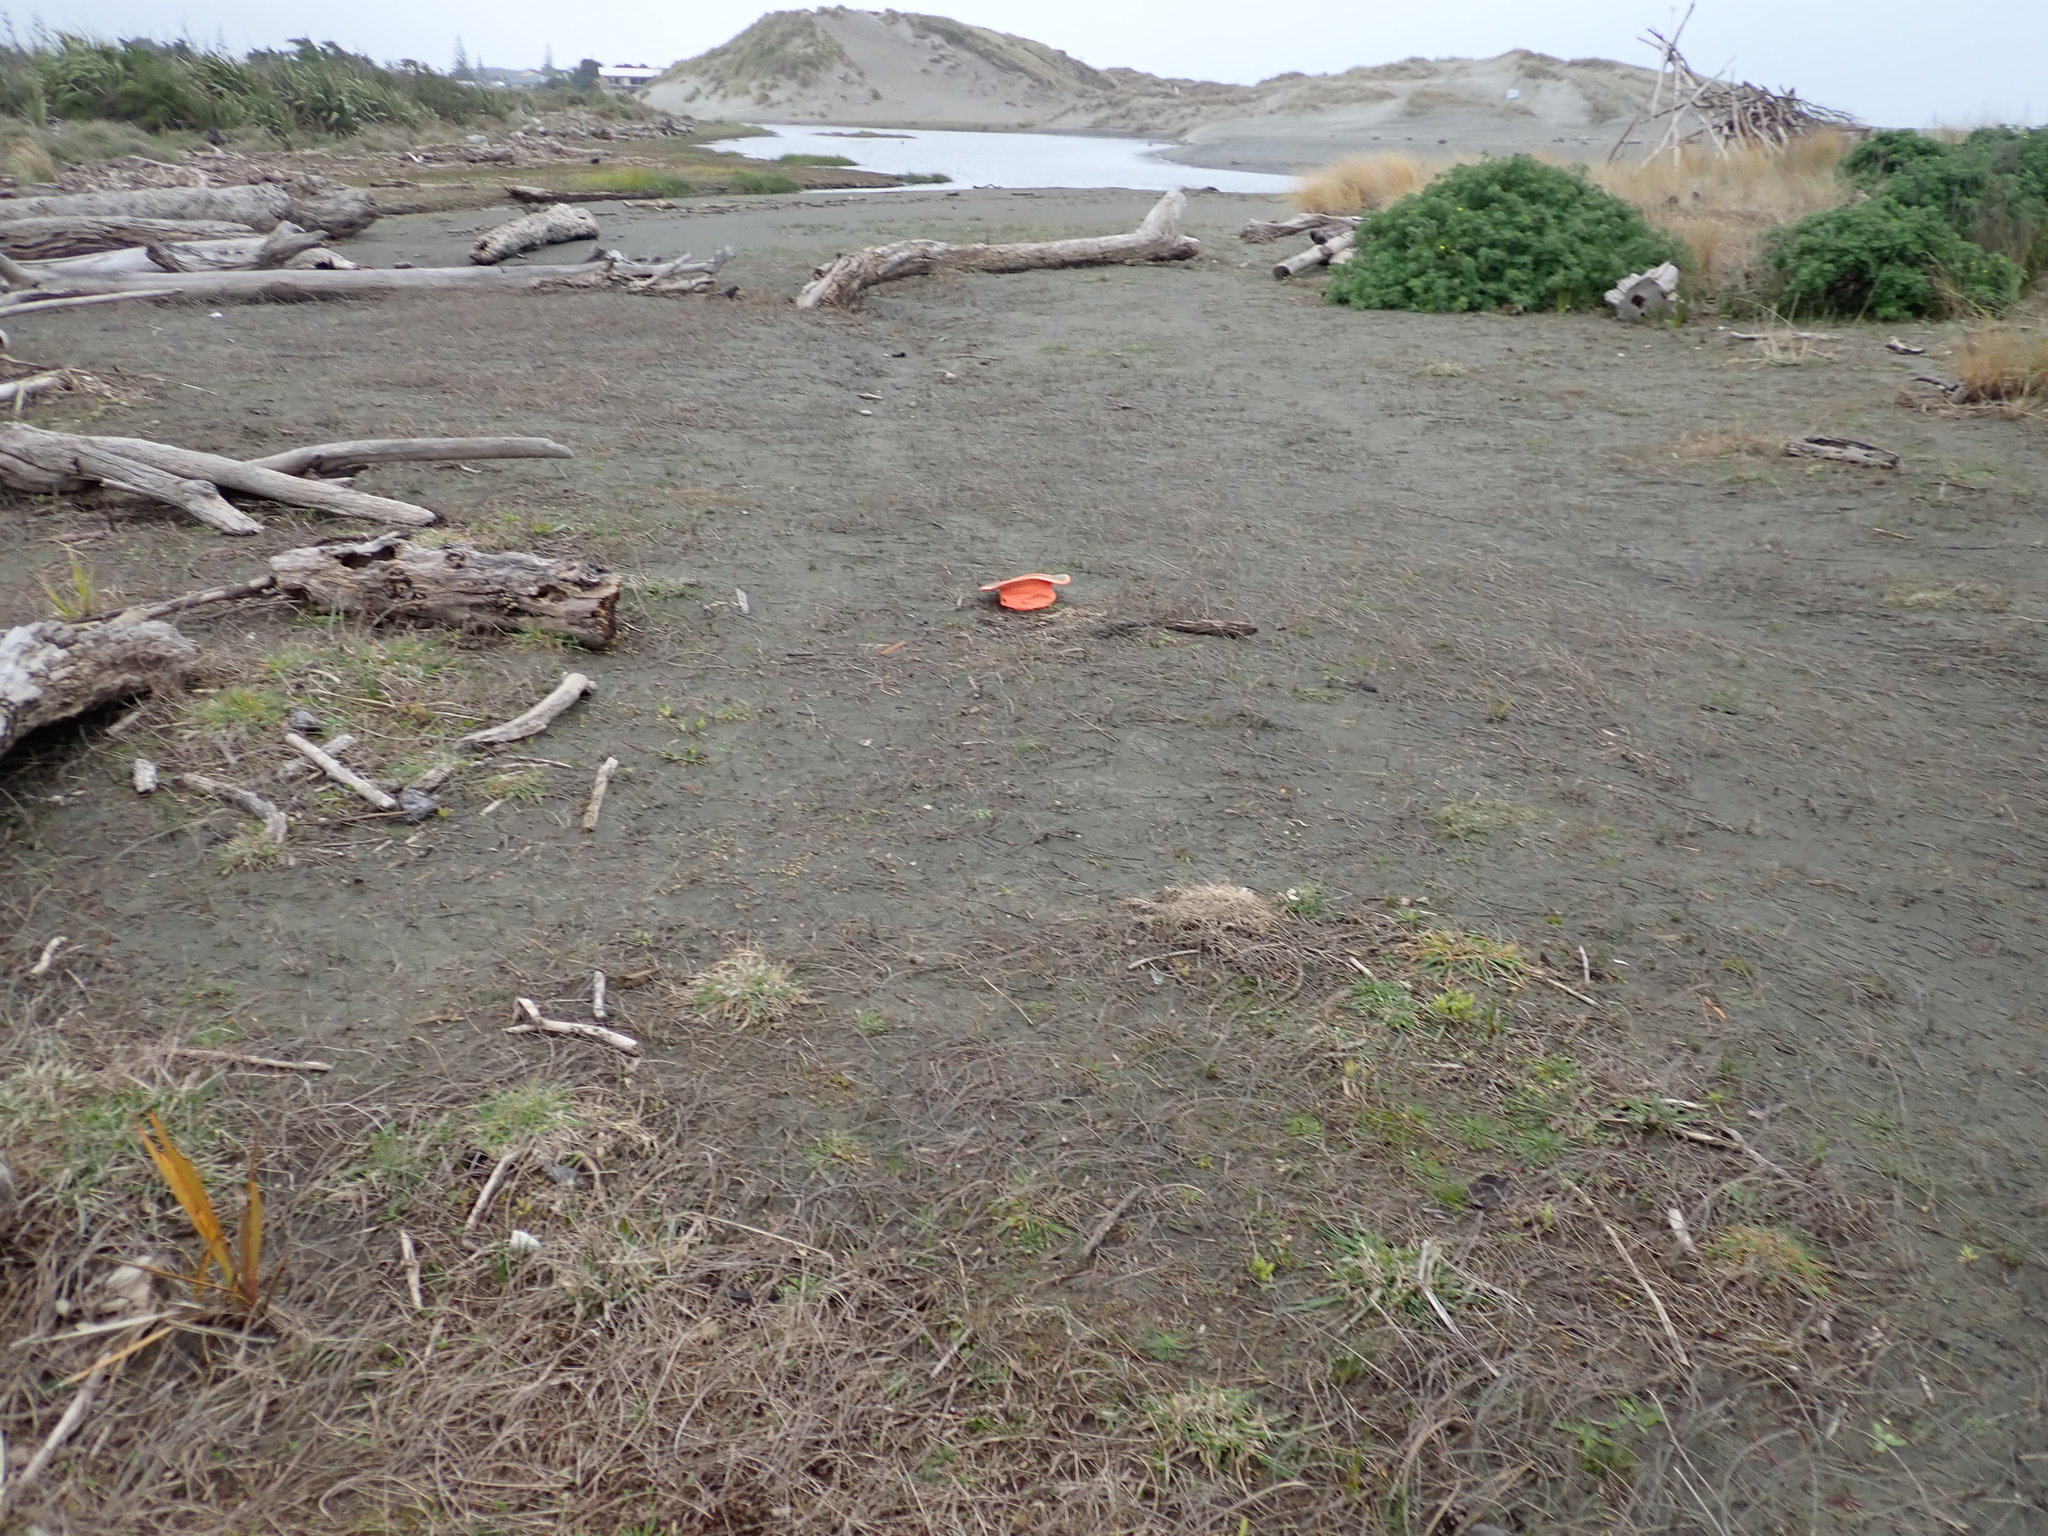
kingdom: Plantae
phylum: Tracheophyta
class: Magnoliopsida
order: Asterales
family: Campanulaceae
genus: Lobelia
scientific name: Lobelia anceps
